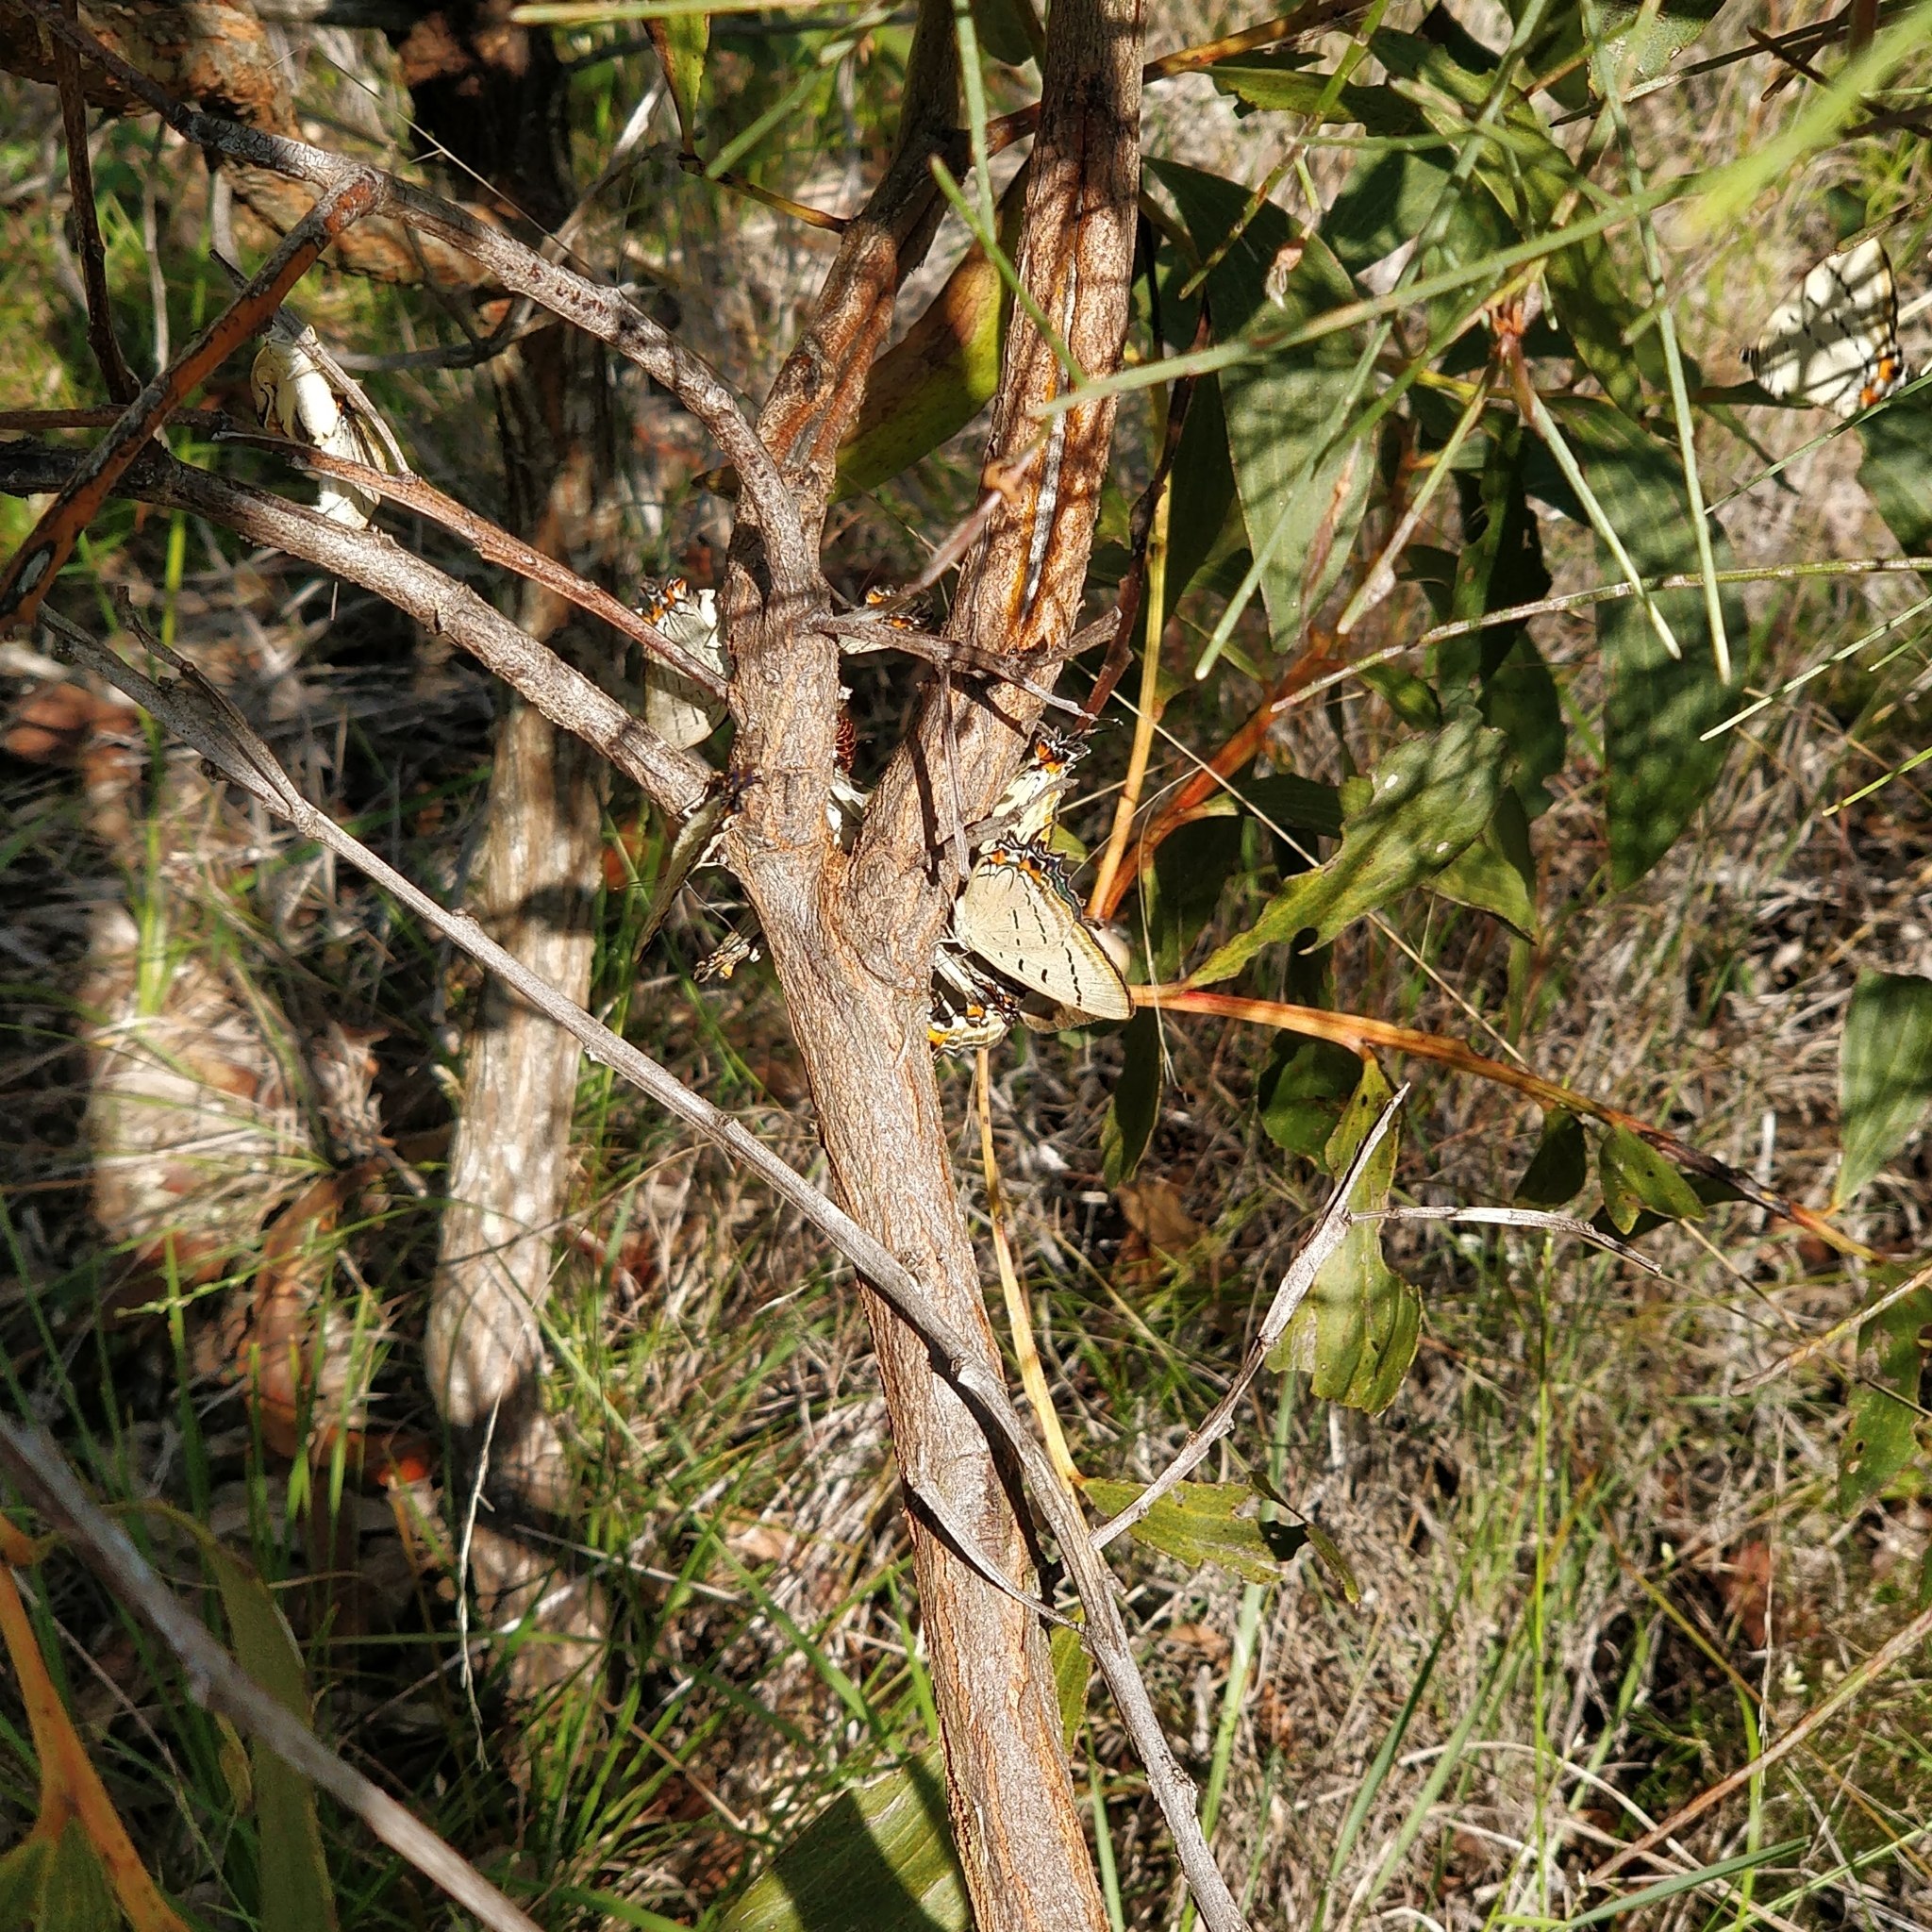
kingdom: Animalia
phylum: Arthropoda
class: Insecta
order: Lepidoptera
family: Lycaenidae
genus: Jalmenus
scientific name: Jalmenus evagoras
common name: Common imperial blue
